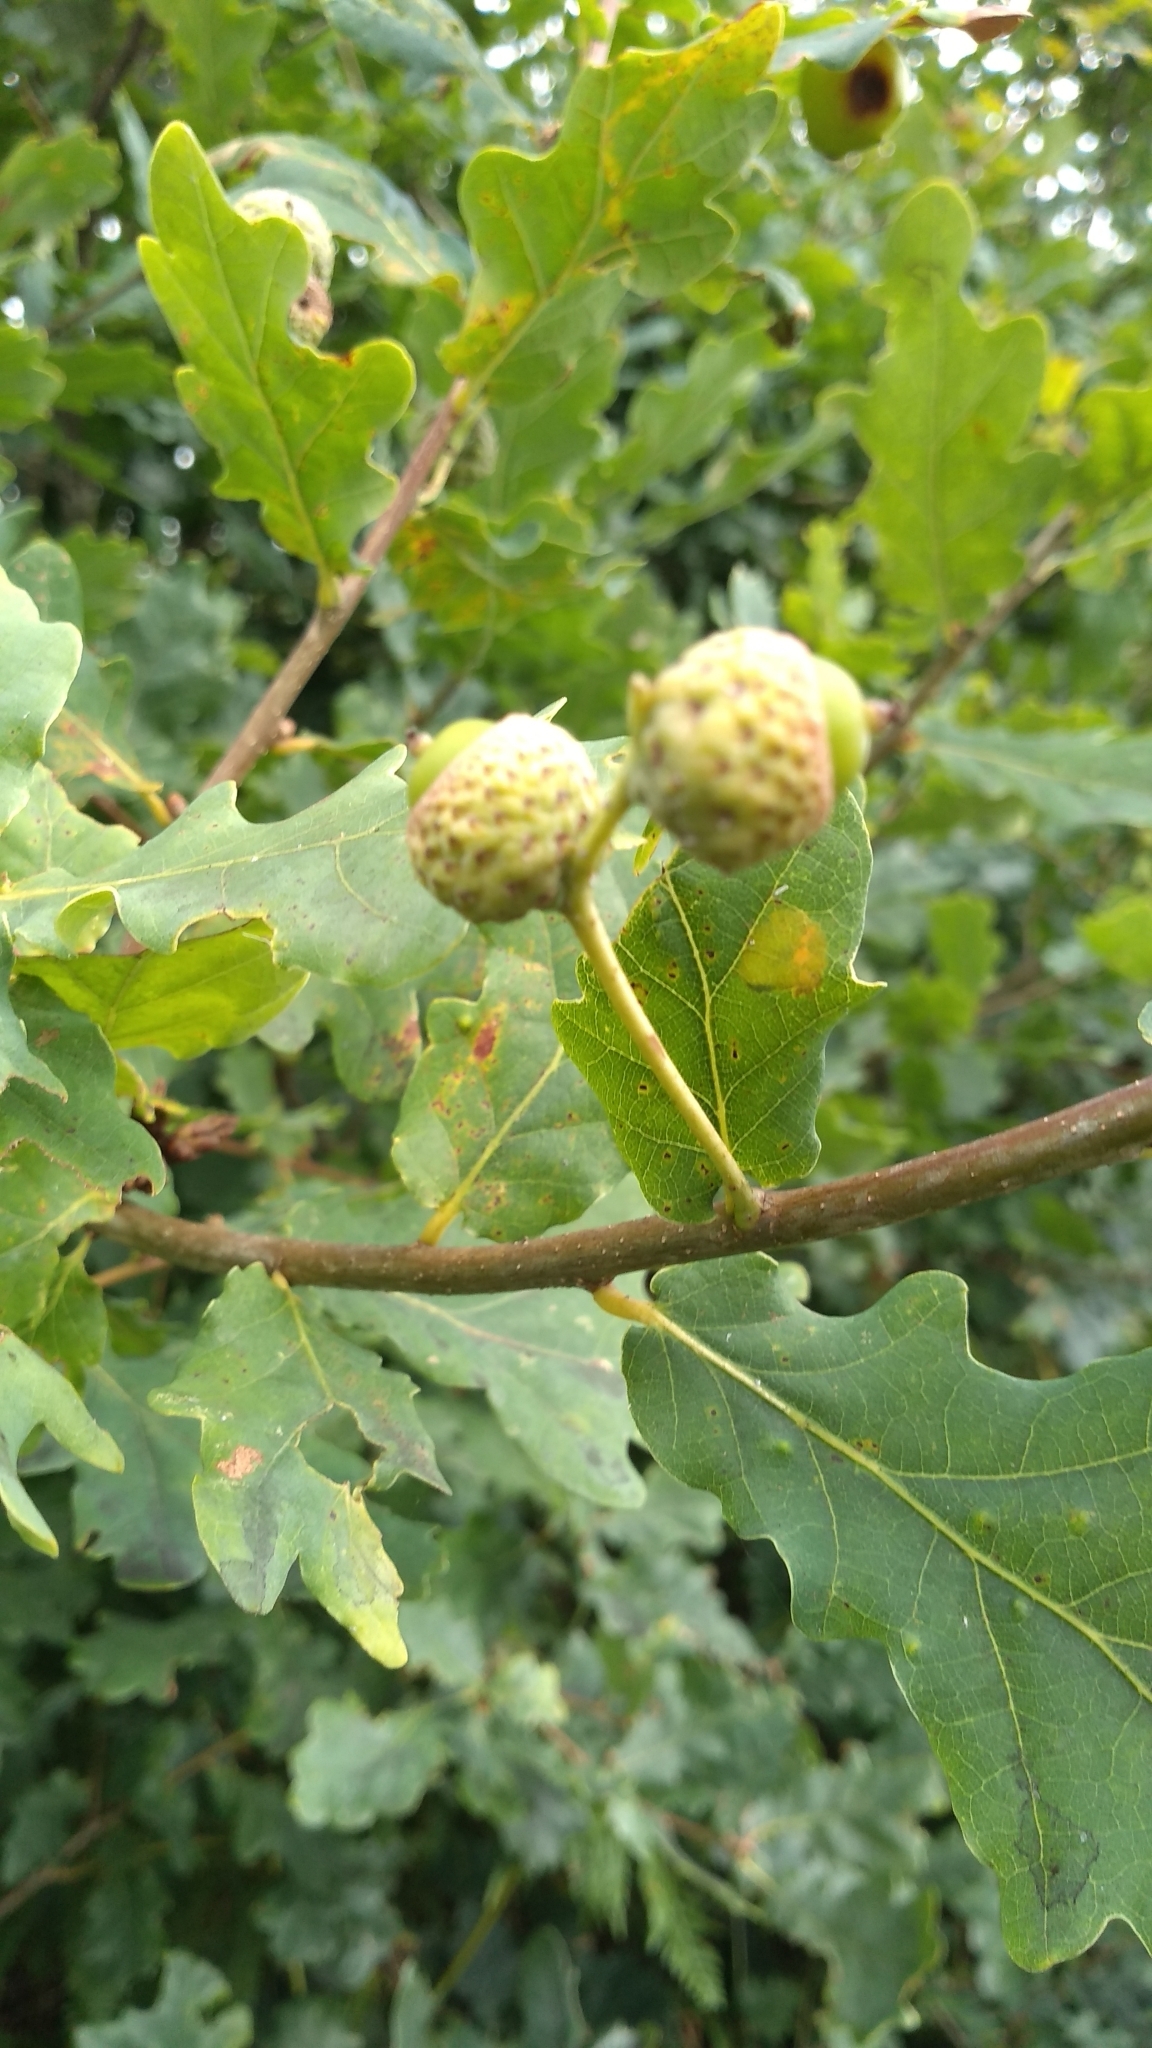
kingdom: Plantae
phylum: Tracheophyta
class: Magnoliopsida
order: Fagales
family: Fagaceae
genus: Quercus
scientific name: Quercus robur
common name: Pedunculate oak
